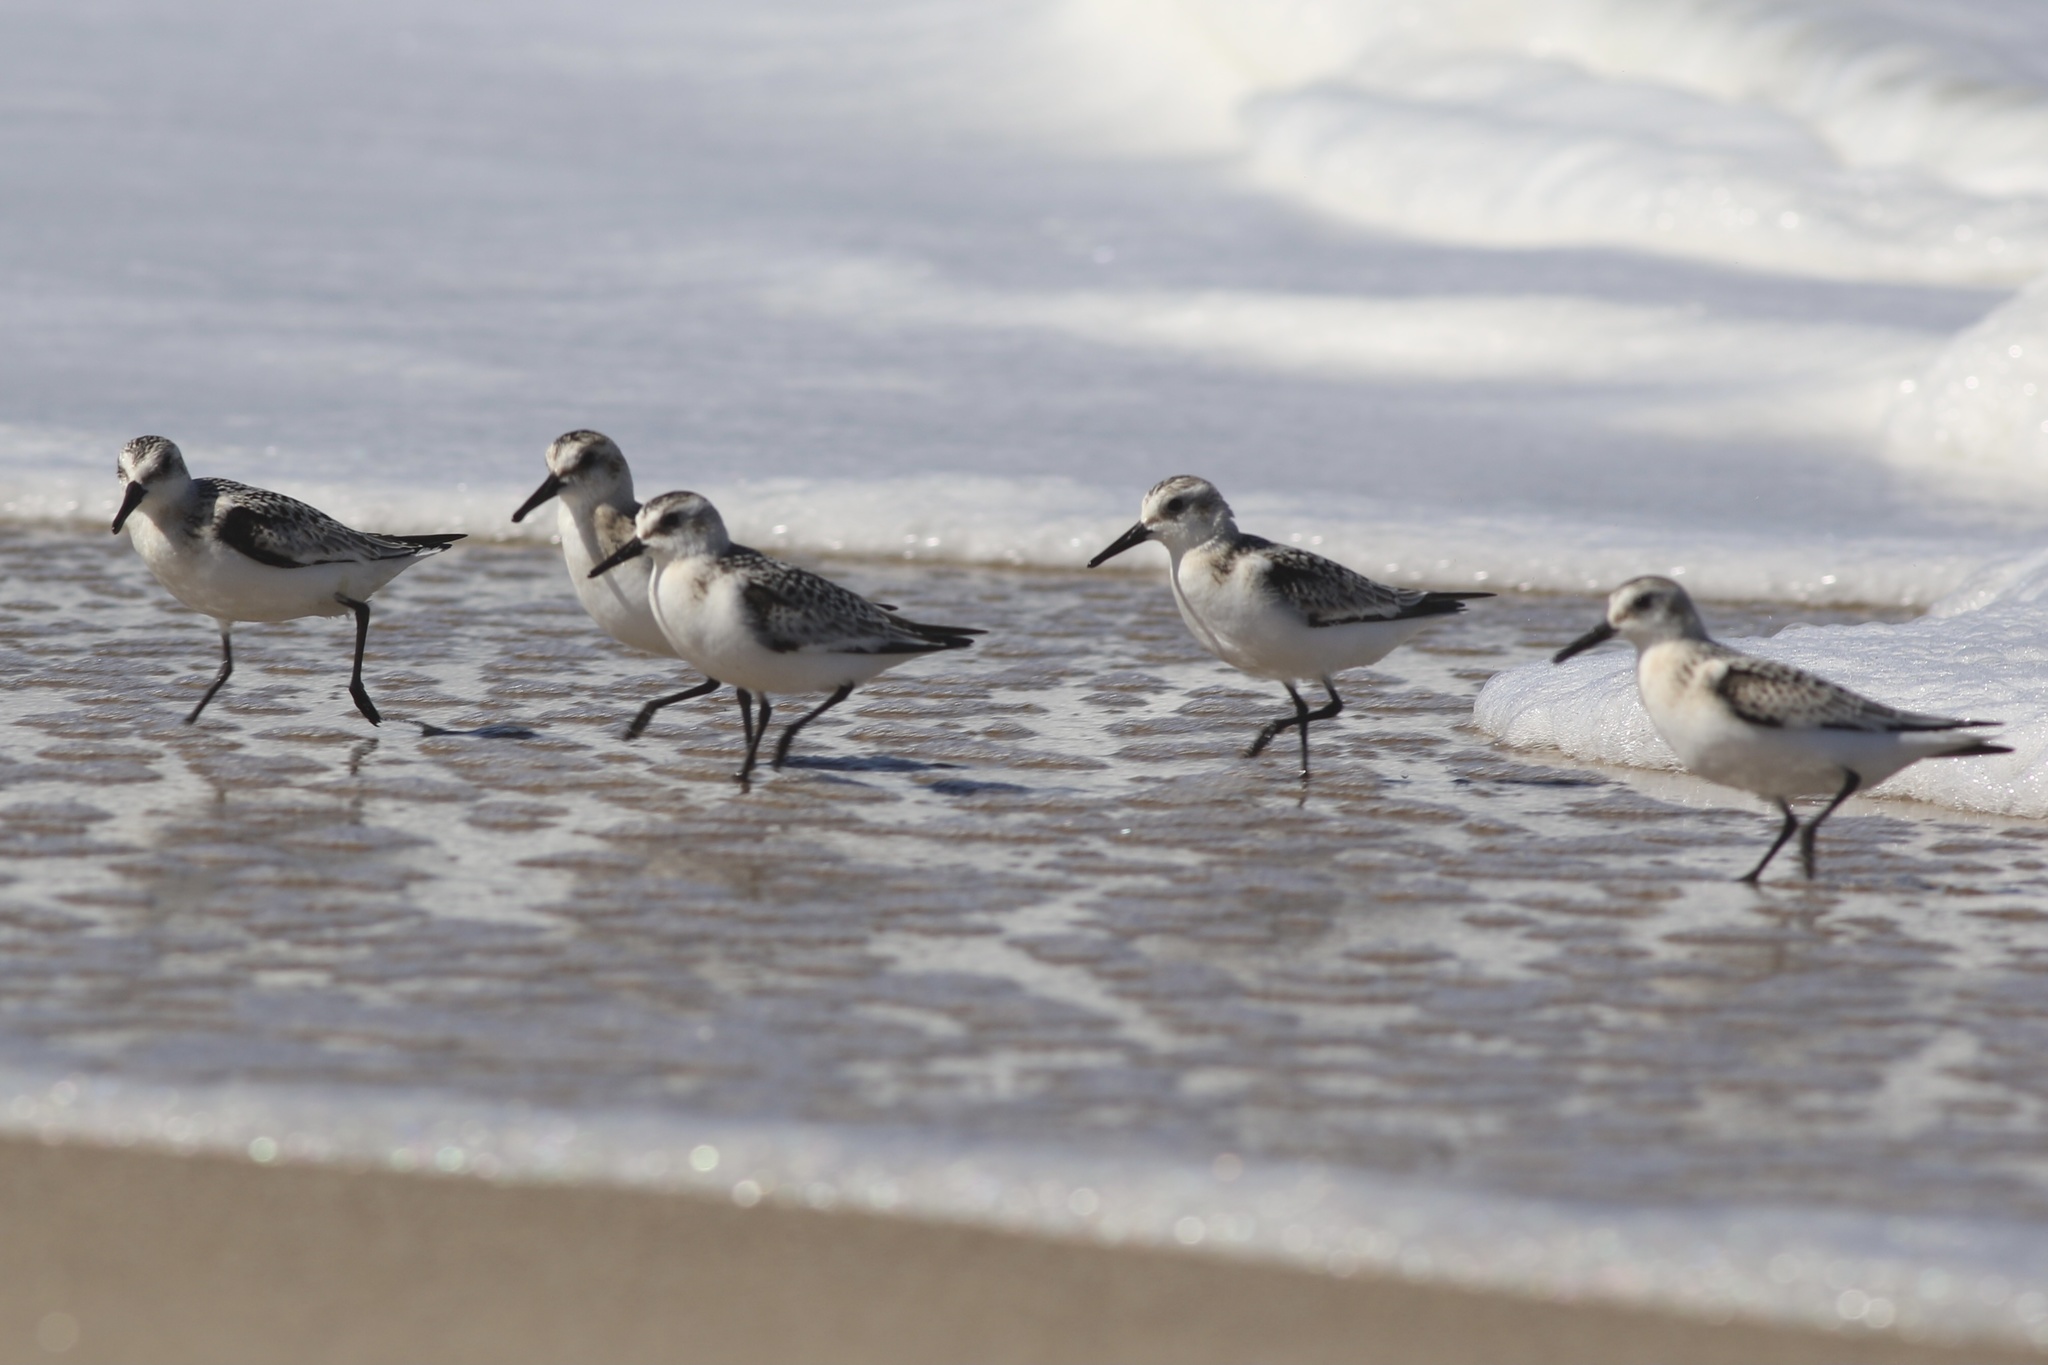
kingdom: Animalia
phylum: Chordata
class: Aves
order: Charadriiformes
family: Scolopacidae
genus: Calidris
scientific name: Calidris alba
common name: Sanderling
